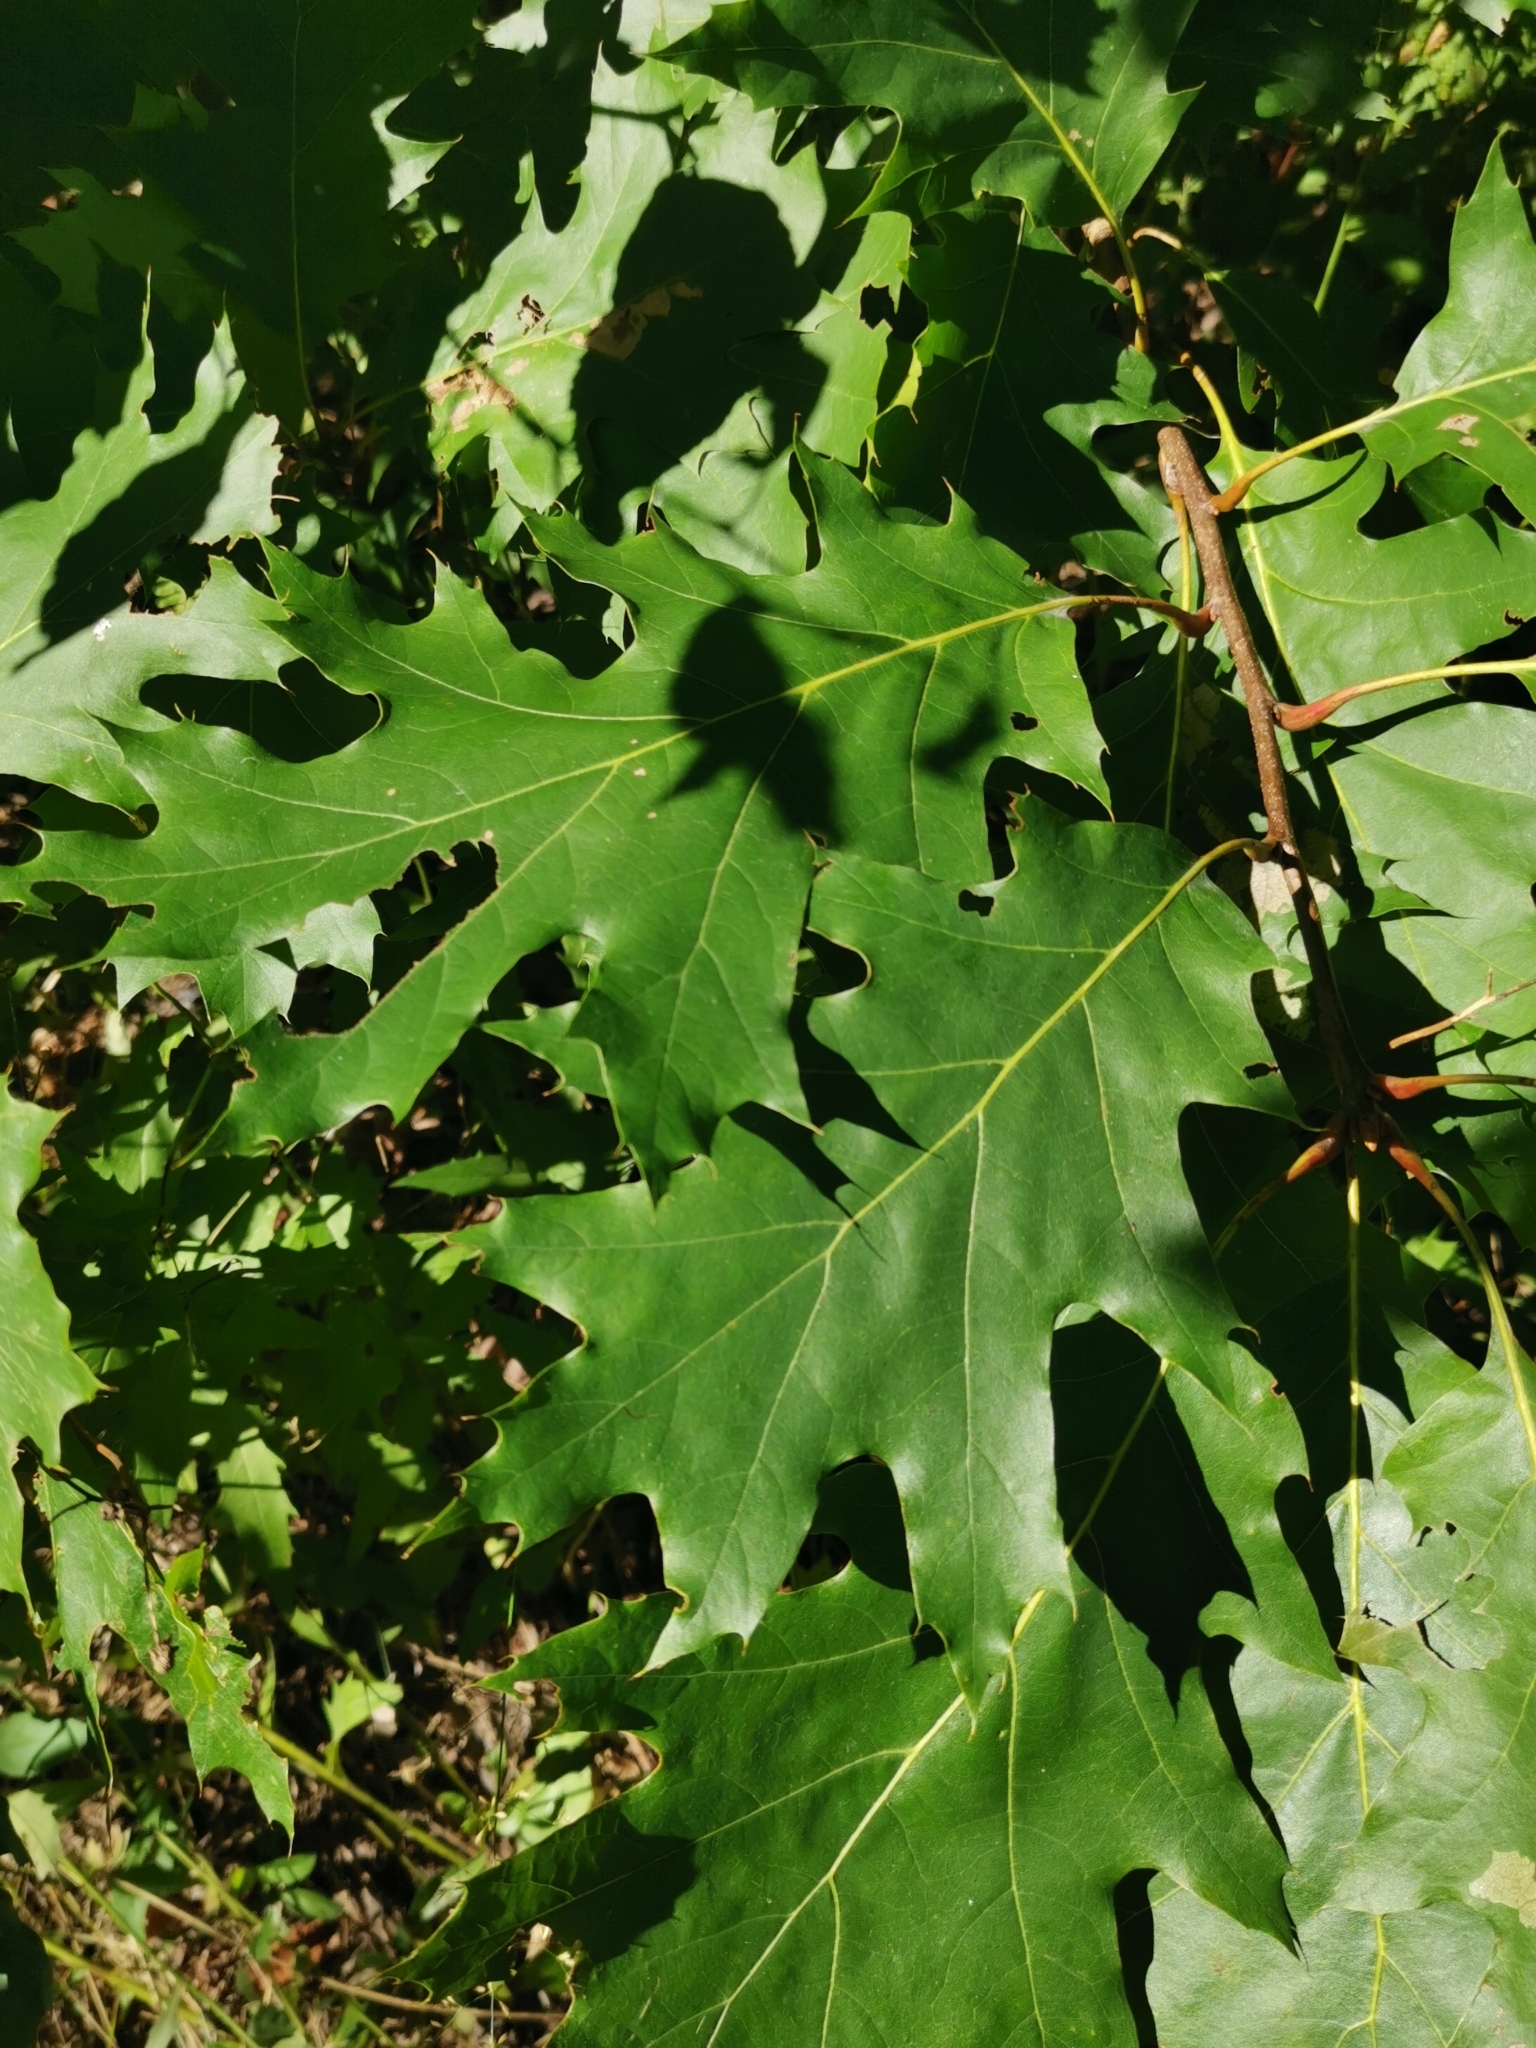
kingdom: Plantae
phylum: Tracheophyta
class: Magnoliopsida
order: Fagales
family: Fagaceae
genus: Quercus
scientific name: Quercus rubra
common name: Red oak
